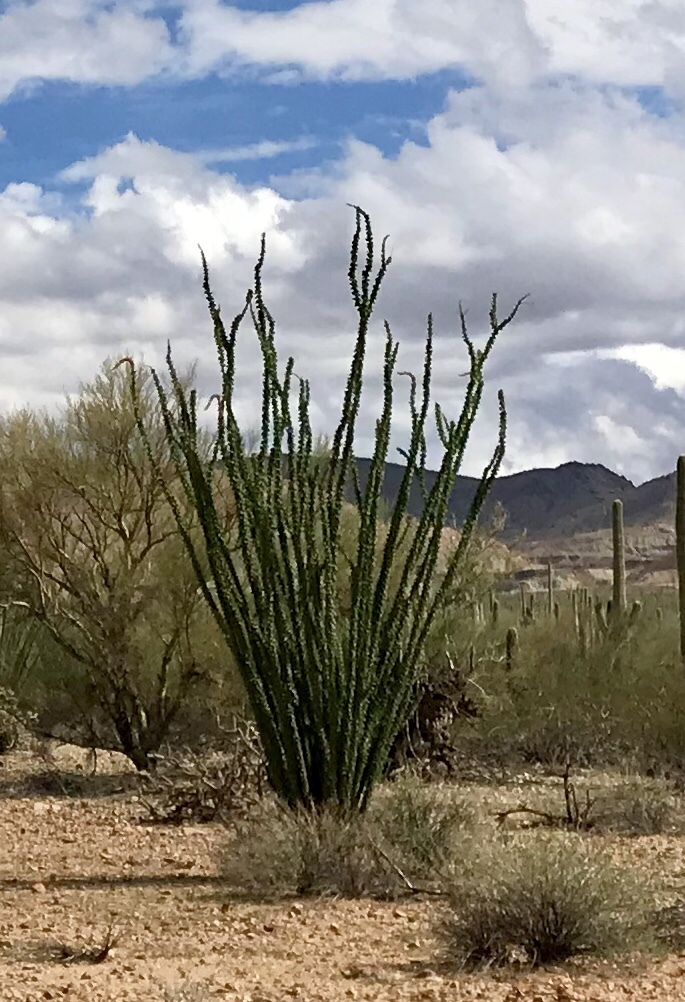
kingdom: Plantae
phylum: Tracheophyta
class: Magnoliopsida
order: Ericales
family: Fouquieriaceae
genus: Fouquieria
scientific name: Fouquieria splendens
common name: Vine-cactus
